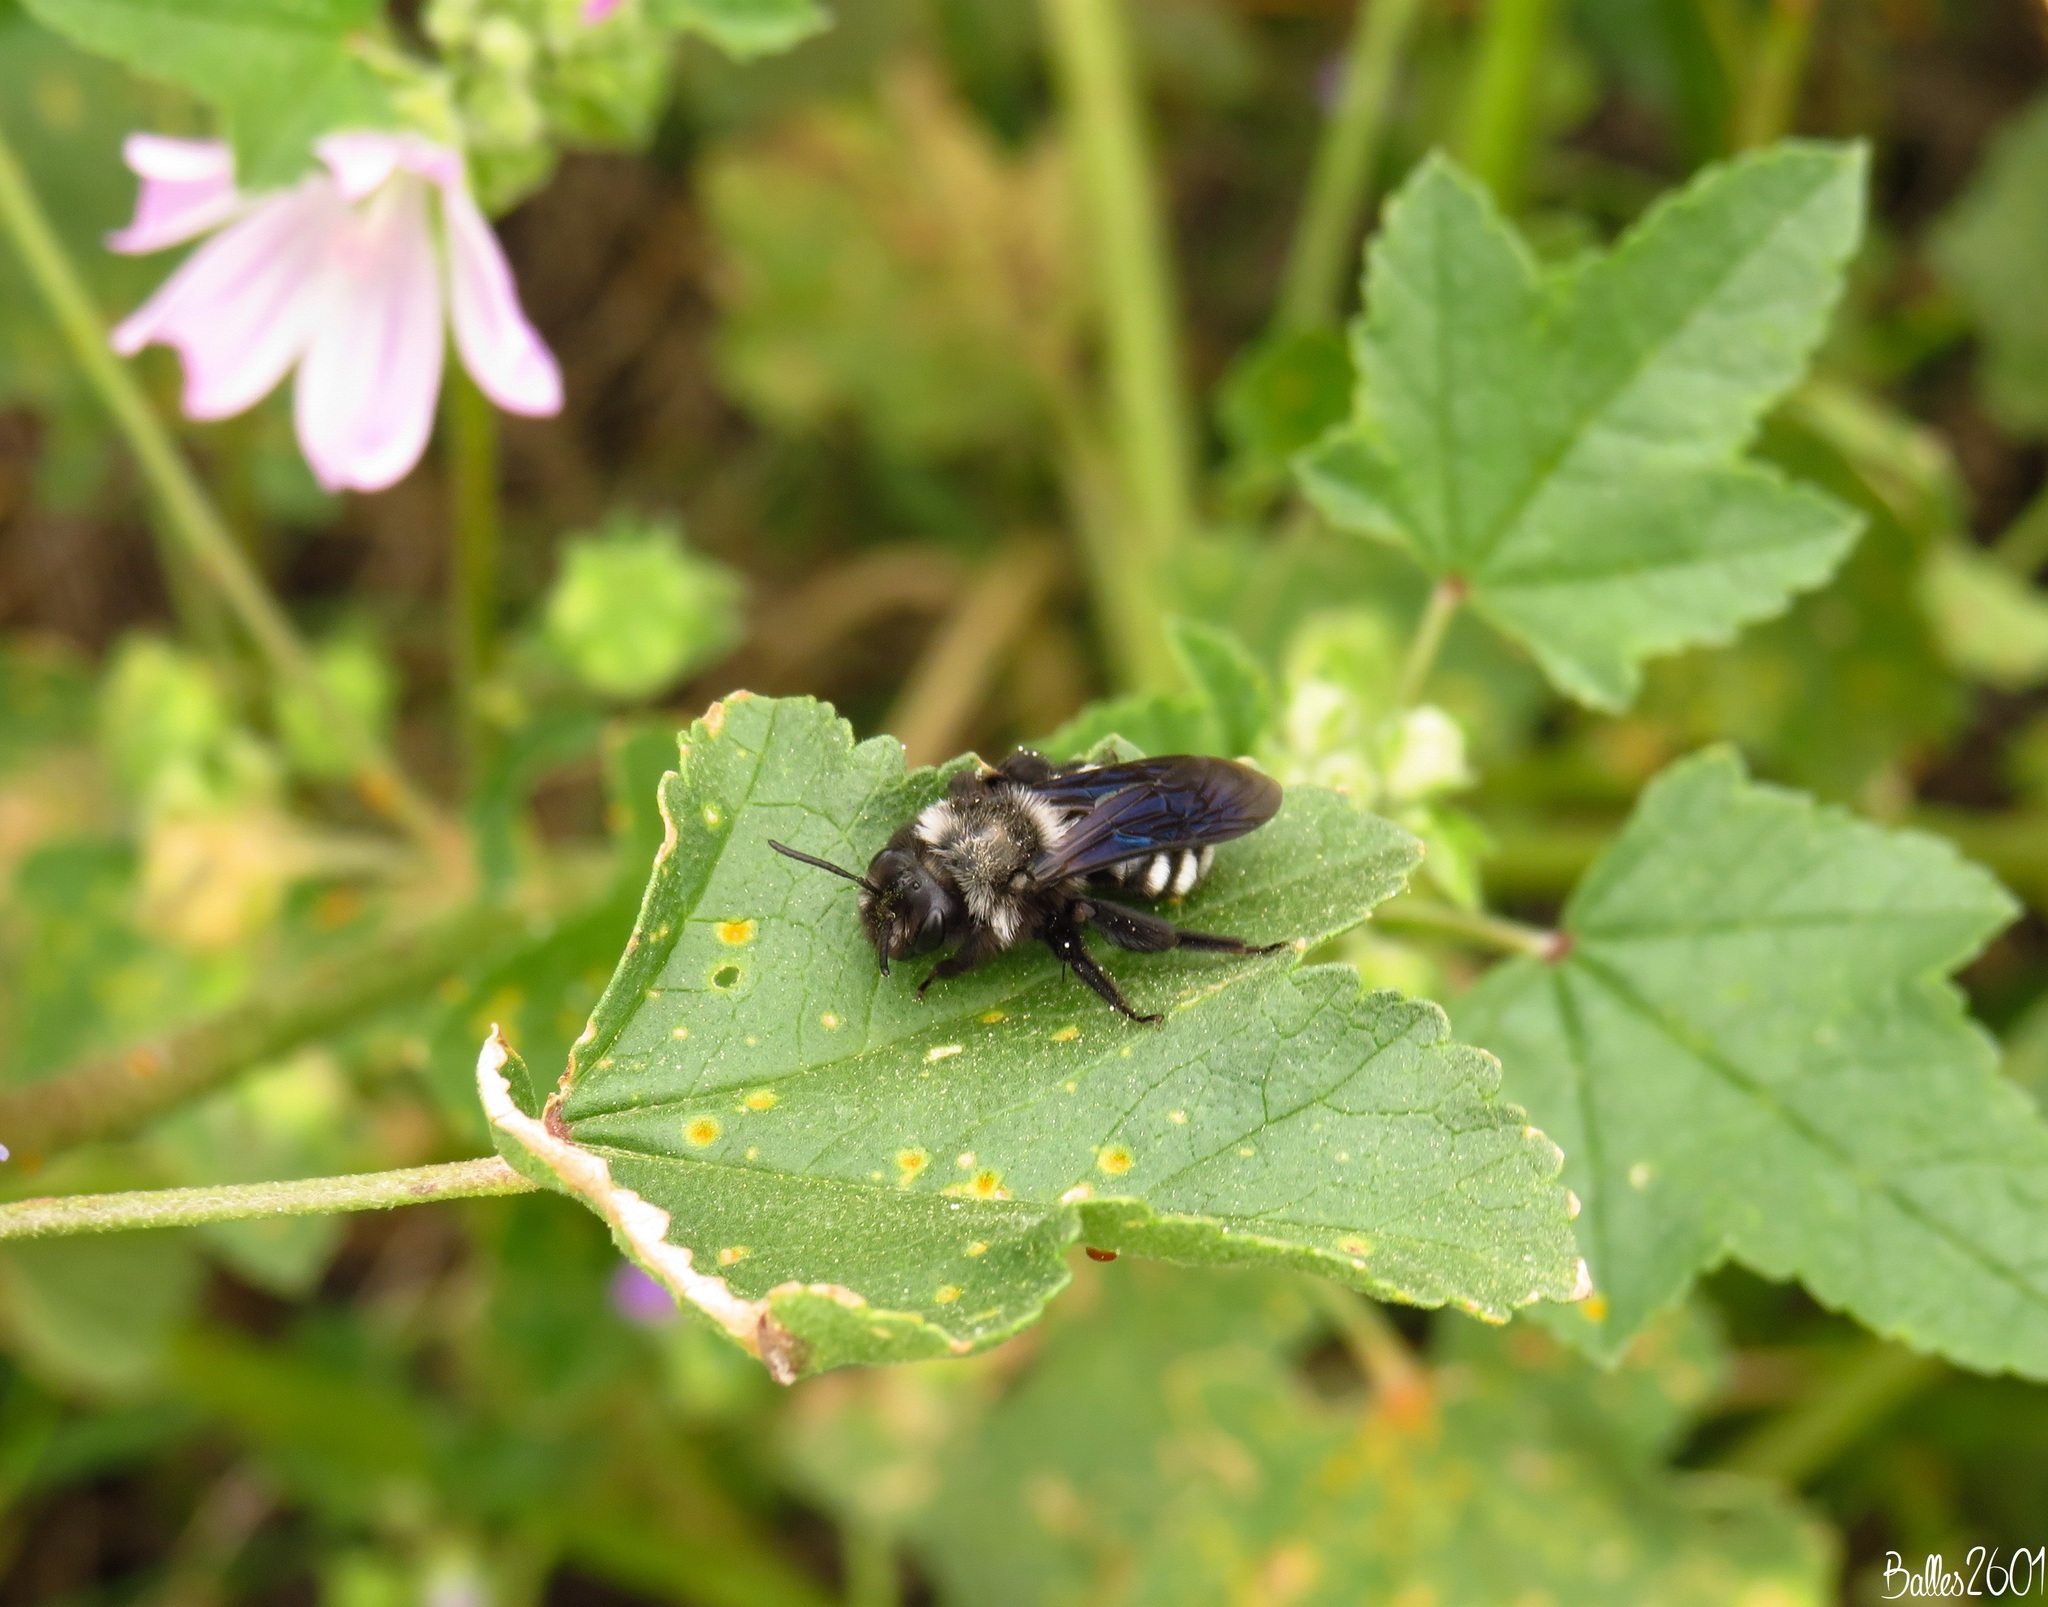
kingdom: Animalia
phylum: Arthropoda
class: Insecta
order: Hymenoptera
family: Andrenidae
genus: Andrena
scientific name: Andrena albopunctata
